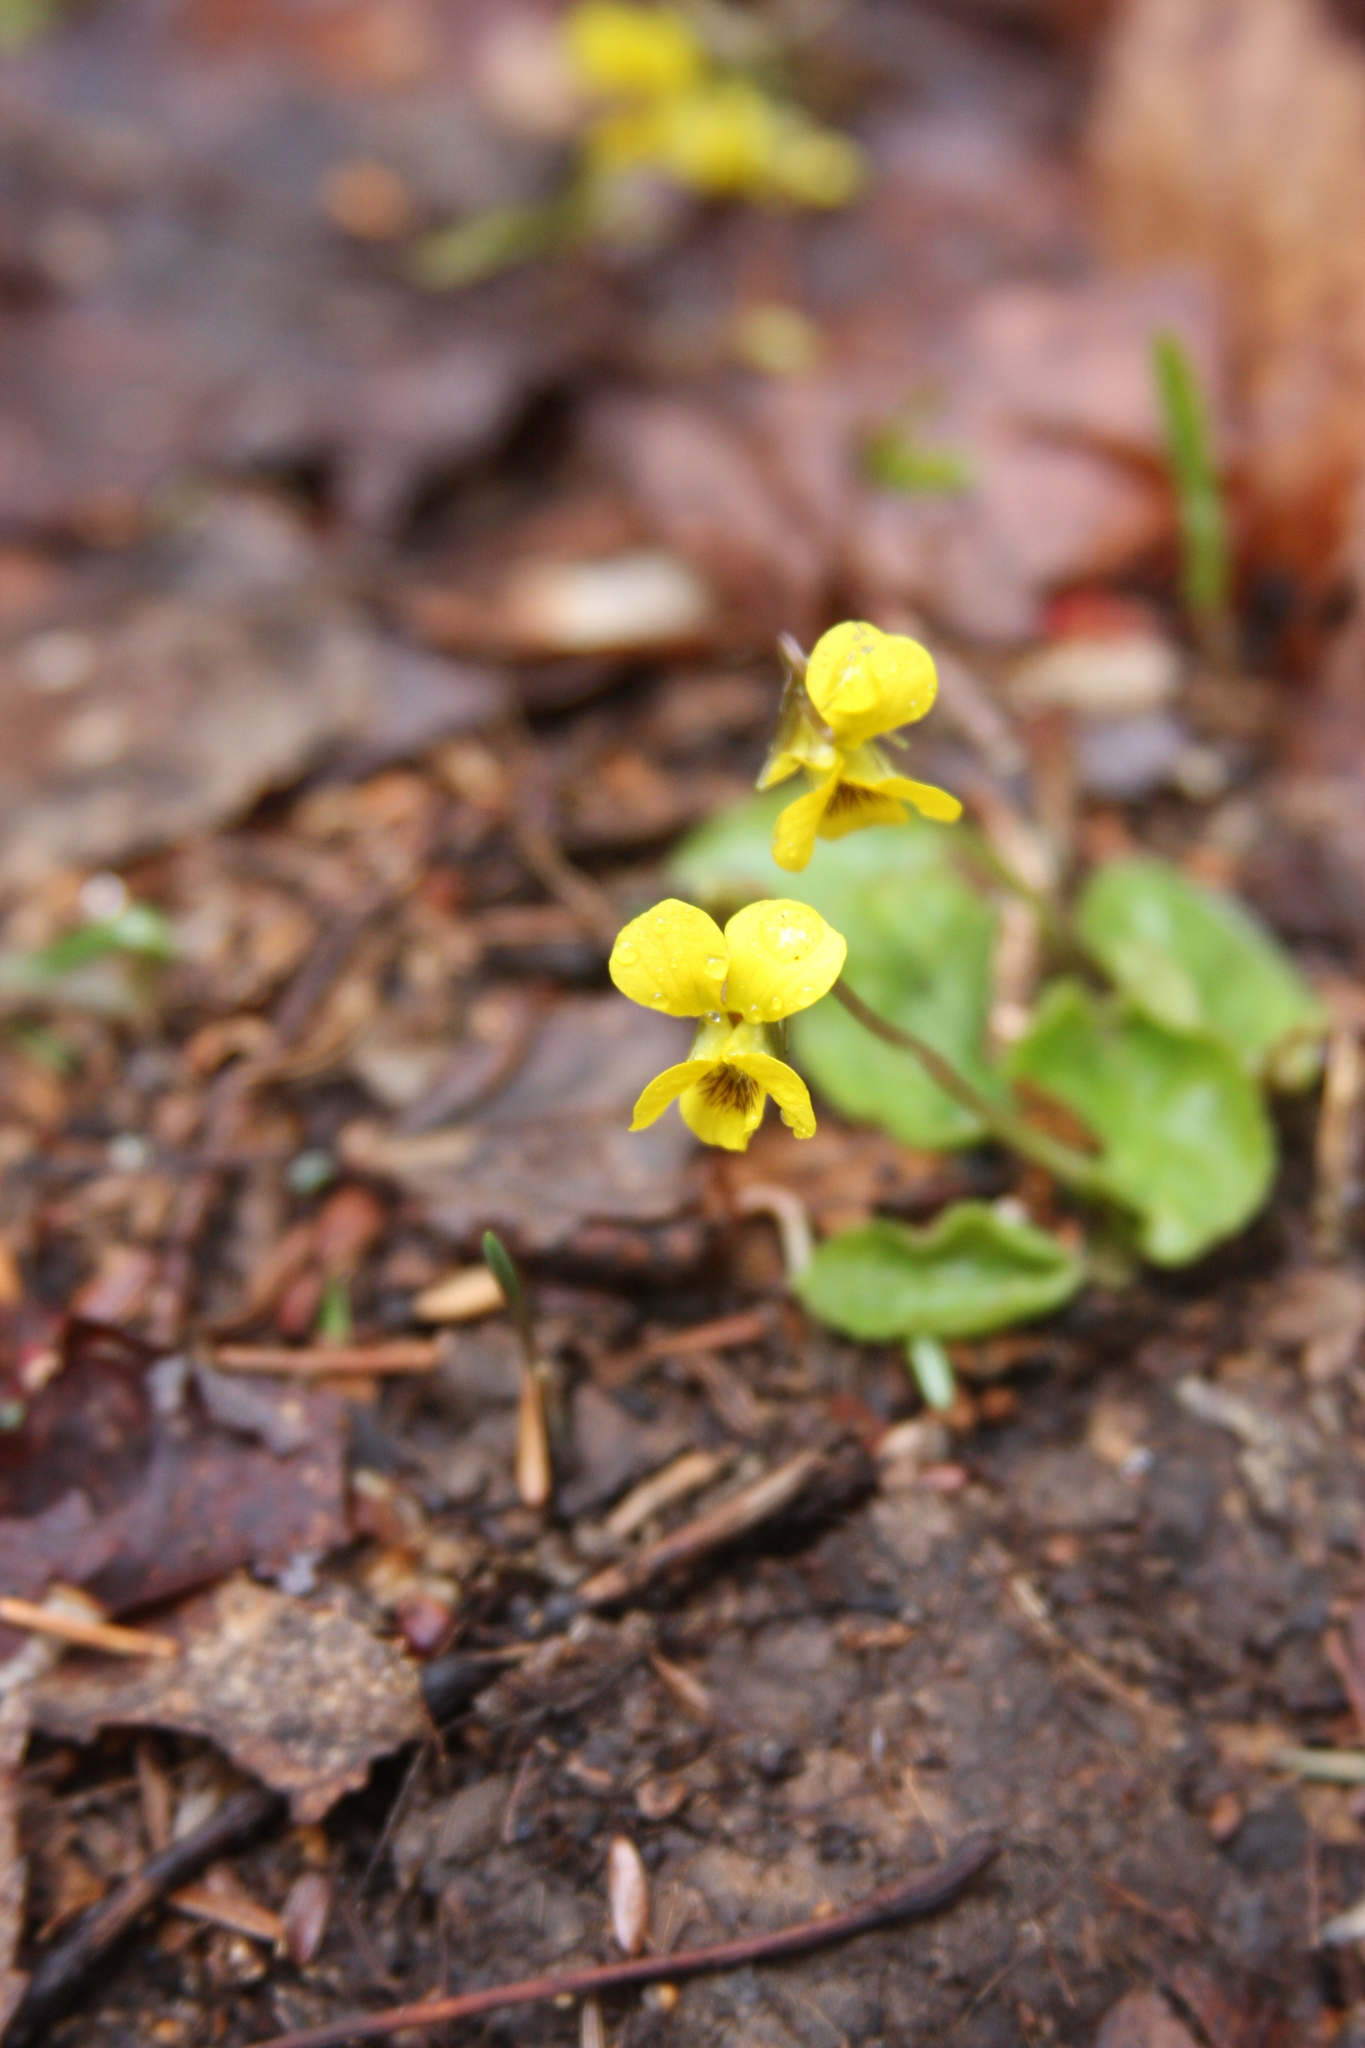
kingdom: Plantae
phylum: Tracheophyta
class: Magnoliopsida
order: Malpighiales
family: Violaceae
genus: Viola
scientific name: Viola rotundifolia
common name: Early yellow violet
